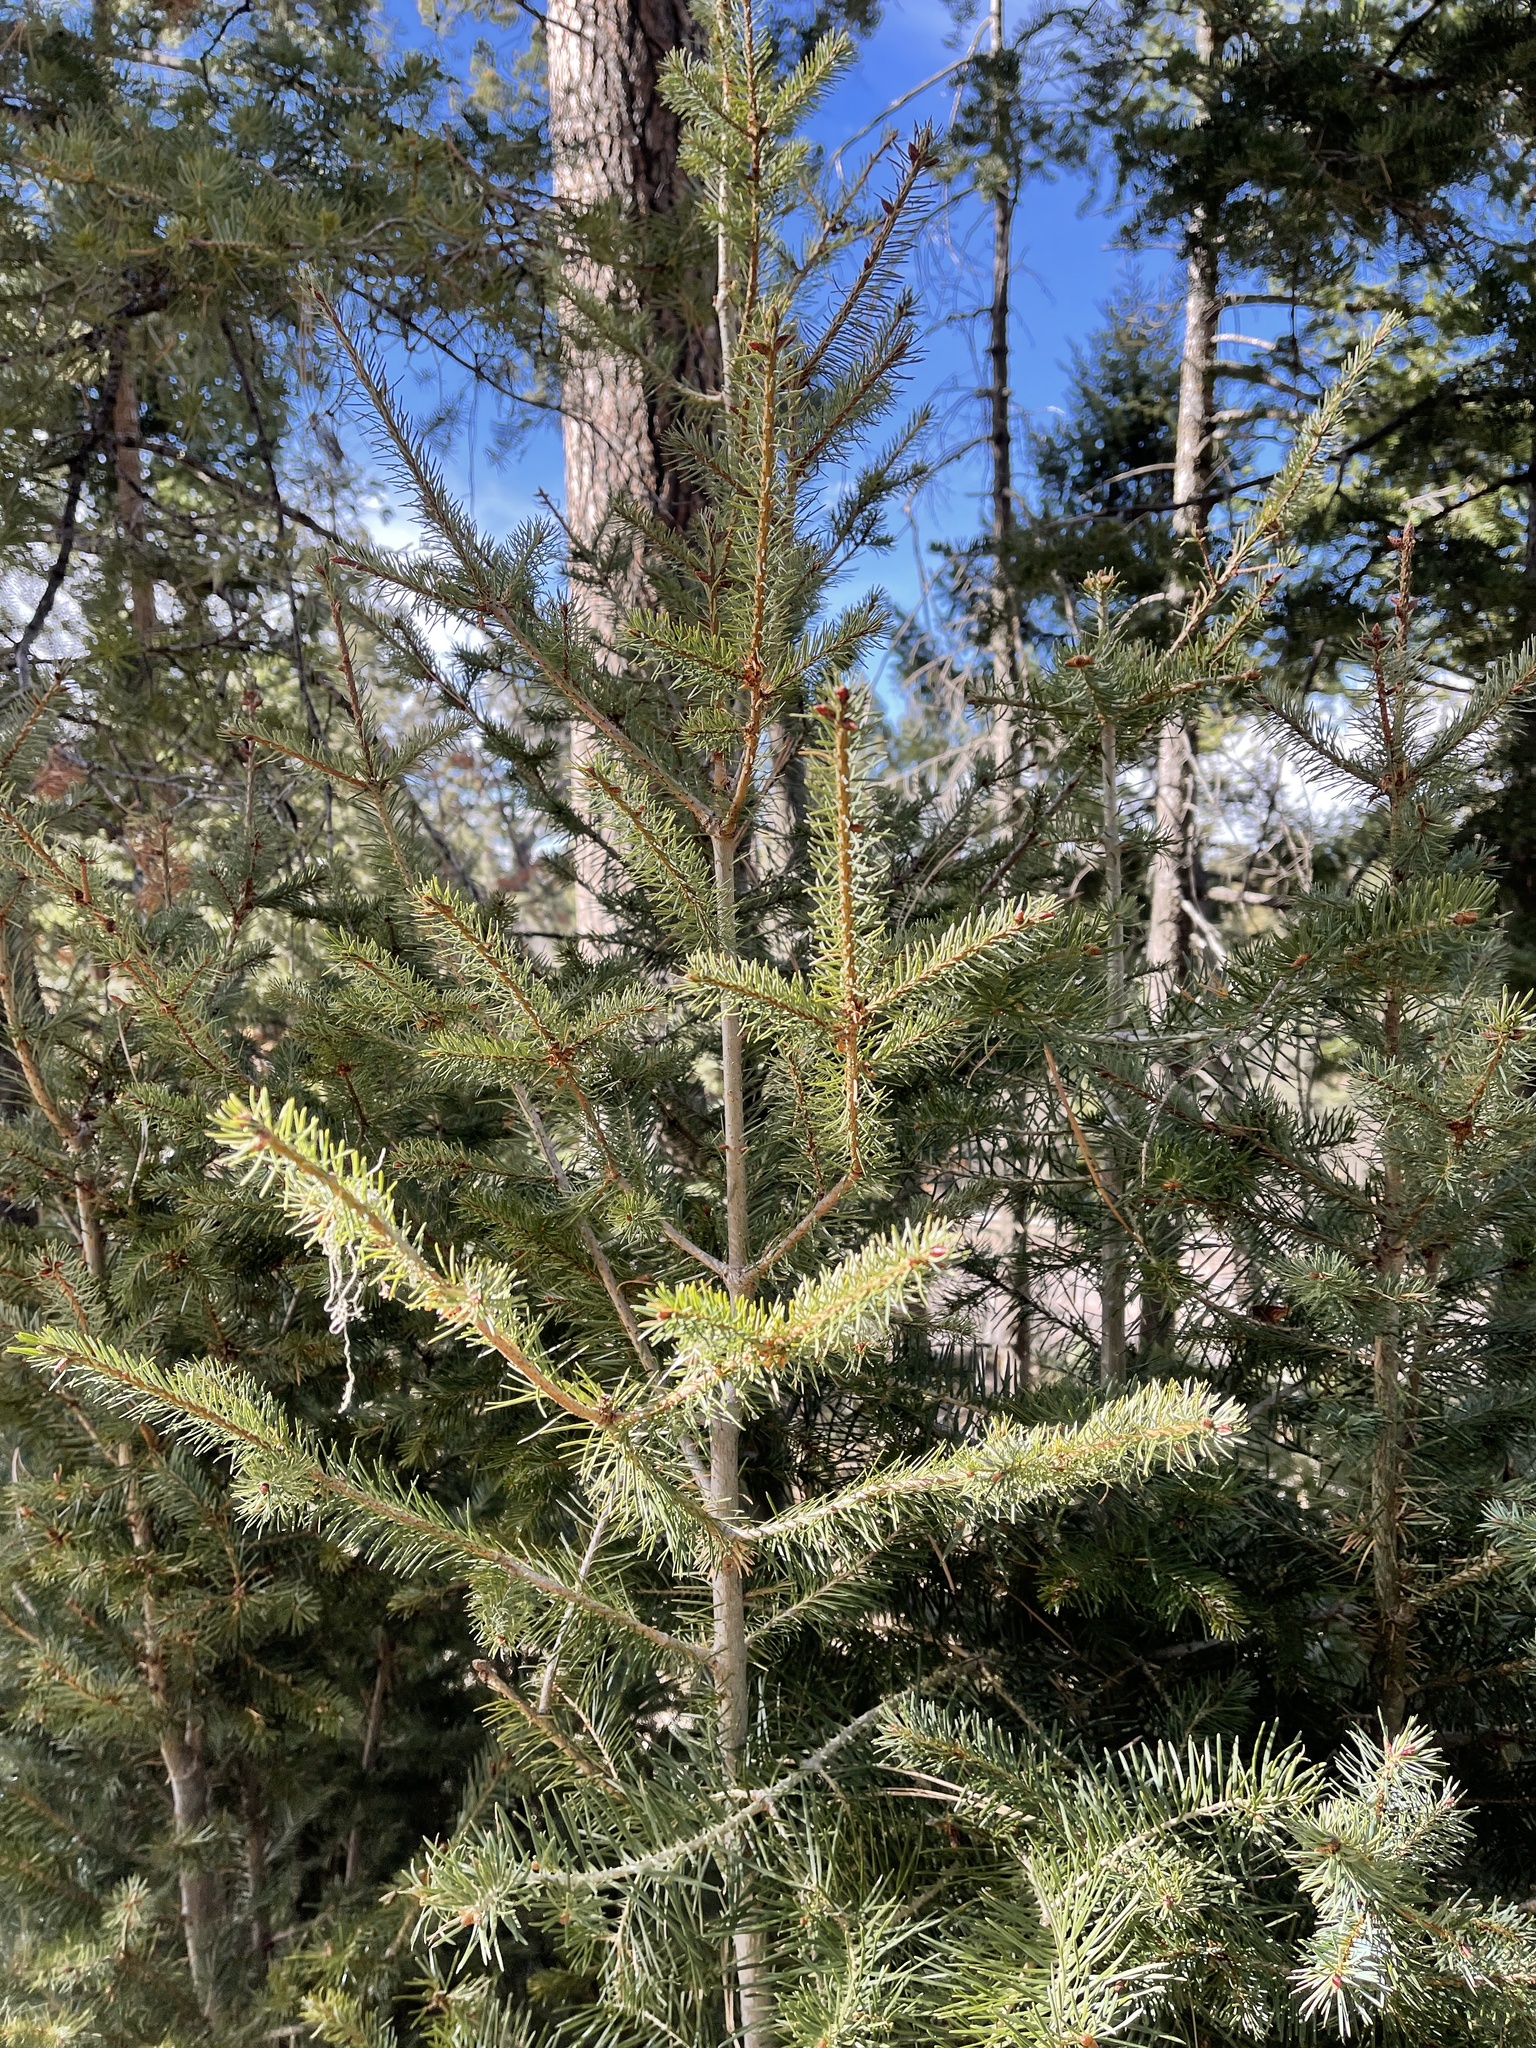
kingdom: Plantae
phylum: Tracheophyta
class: Pinopsida
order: Pinales
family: Pinaceae
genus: Pseudotsuga
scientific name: Pseudotsuga menziesii
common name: Douglas fir
